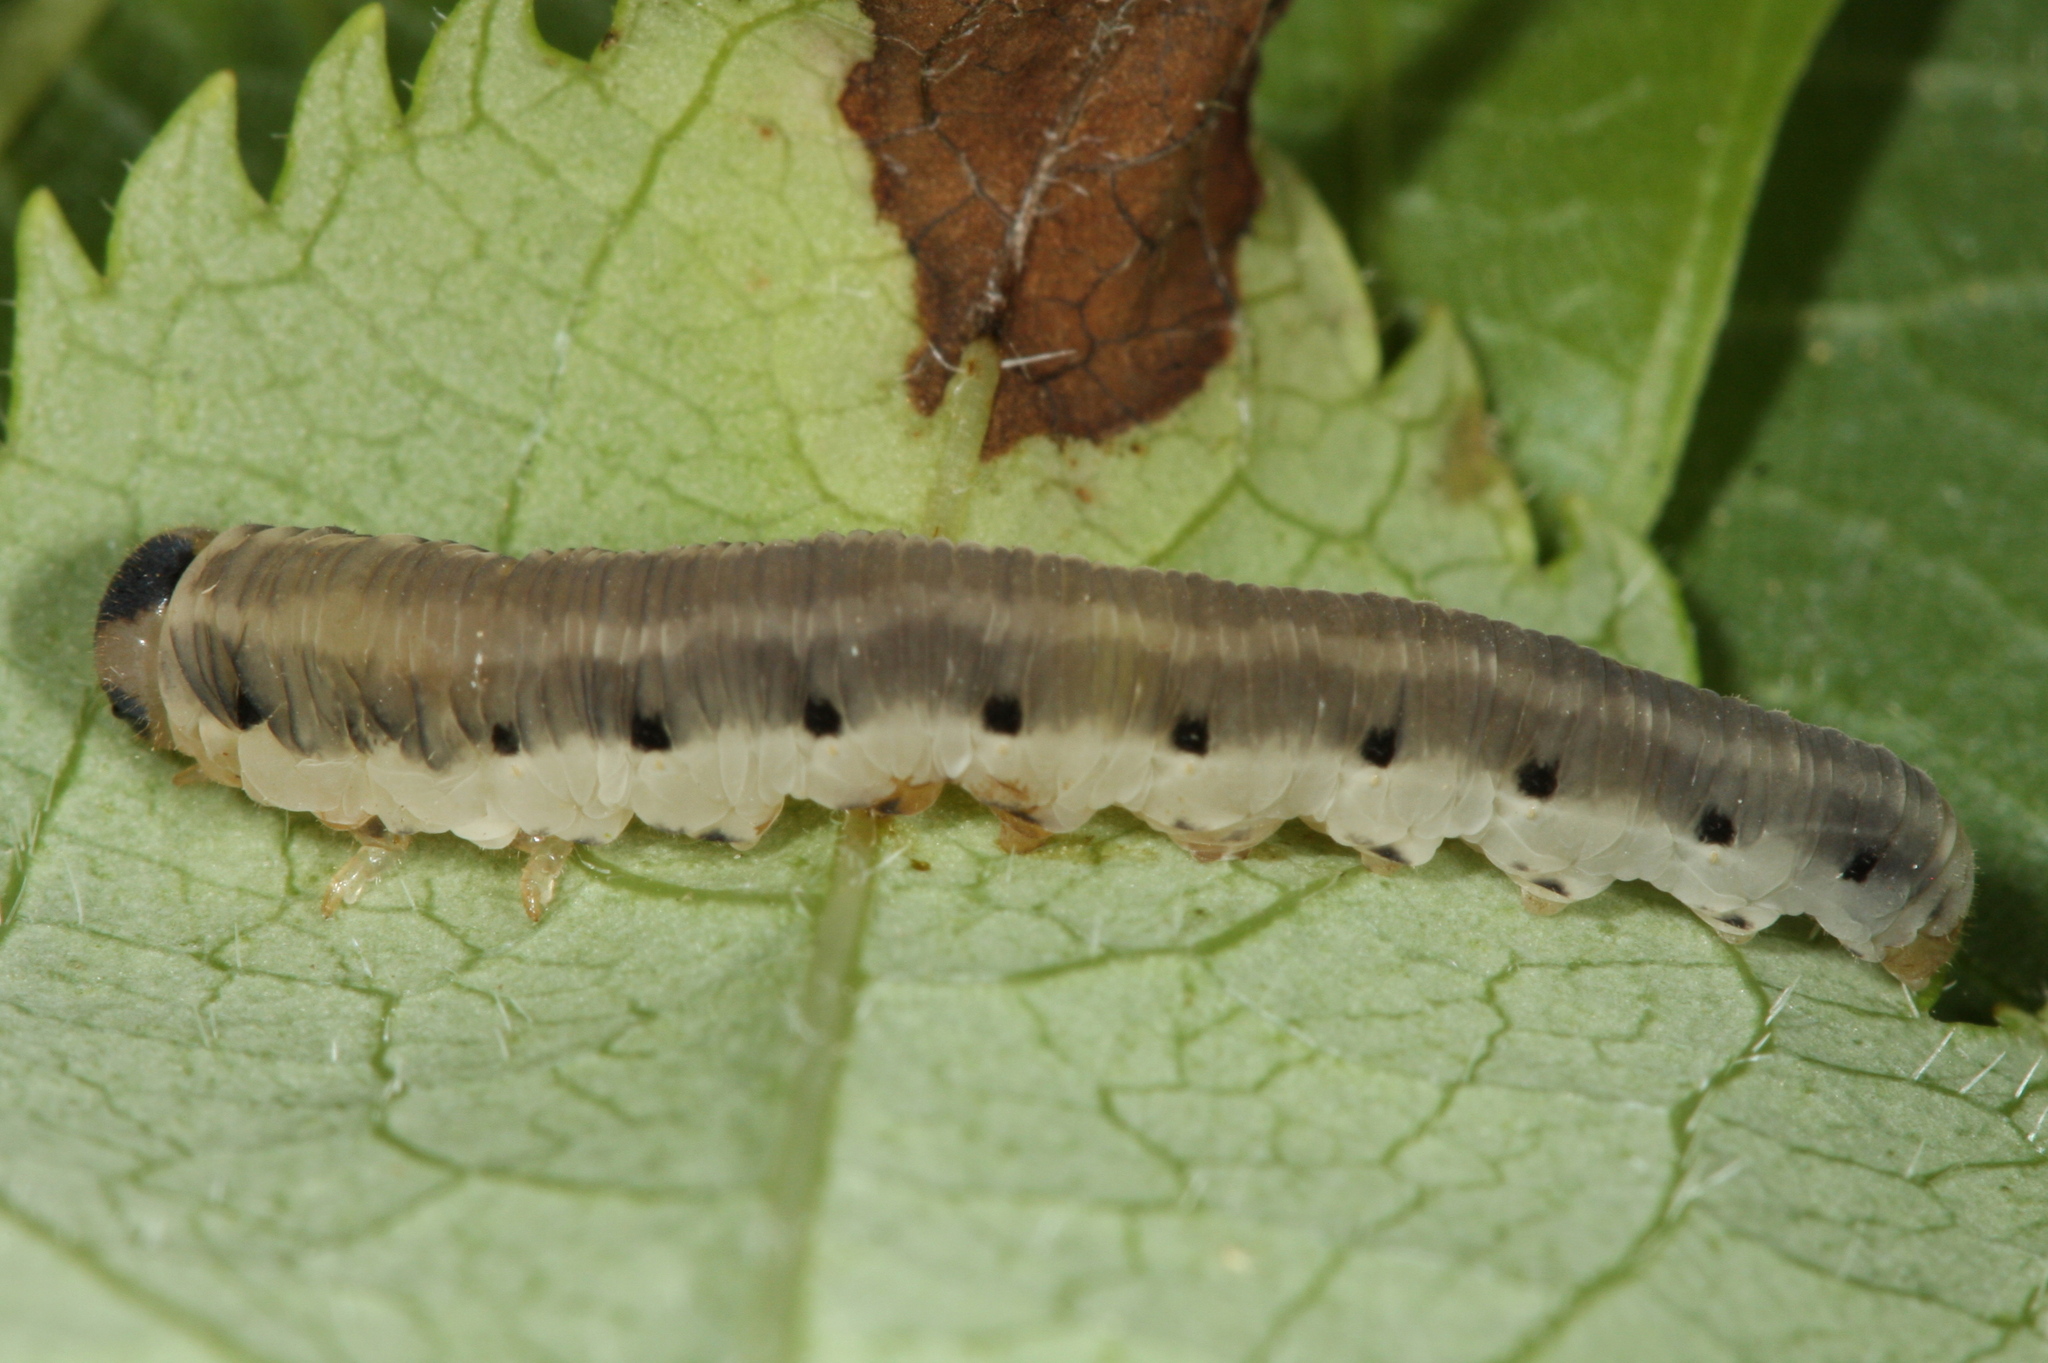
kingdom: Animalia
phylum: Arthropoda
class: Insecta
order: Hymenoptera
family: Tenthredinidae
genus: Macrophya
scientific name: Macrophya alboannulata
